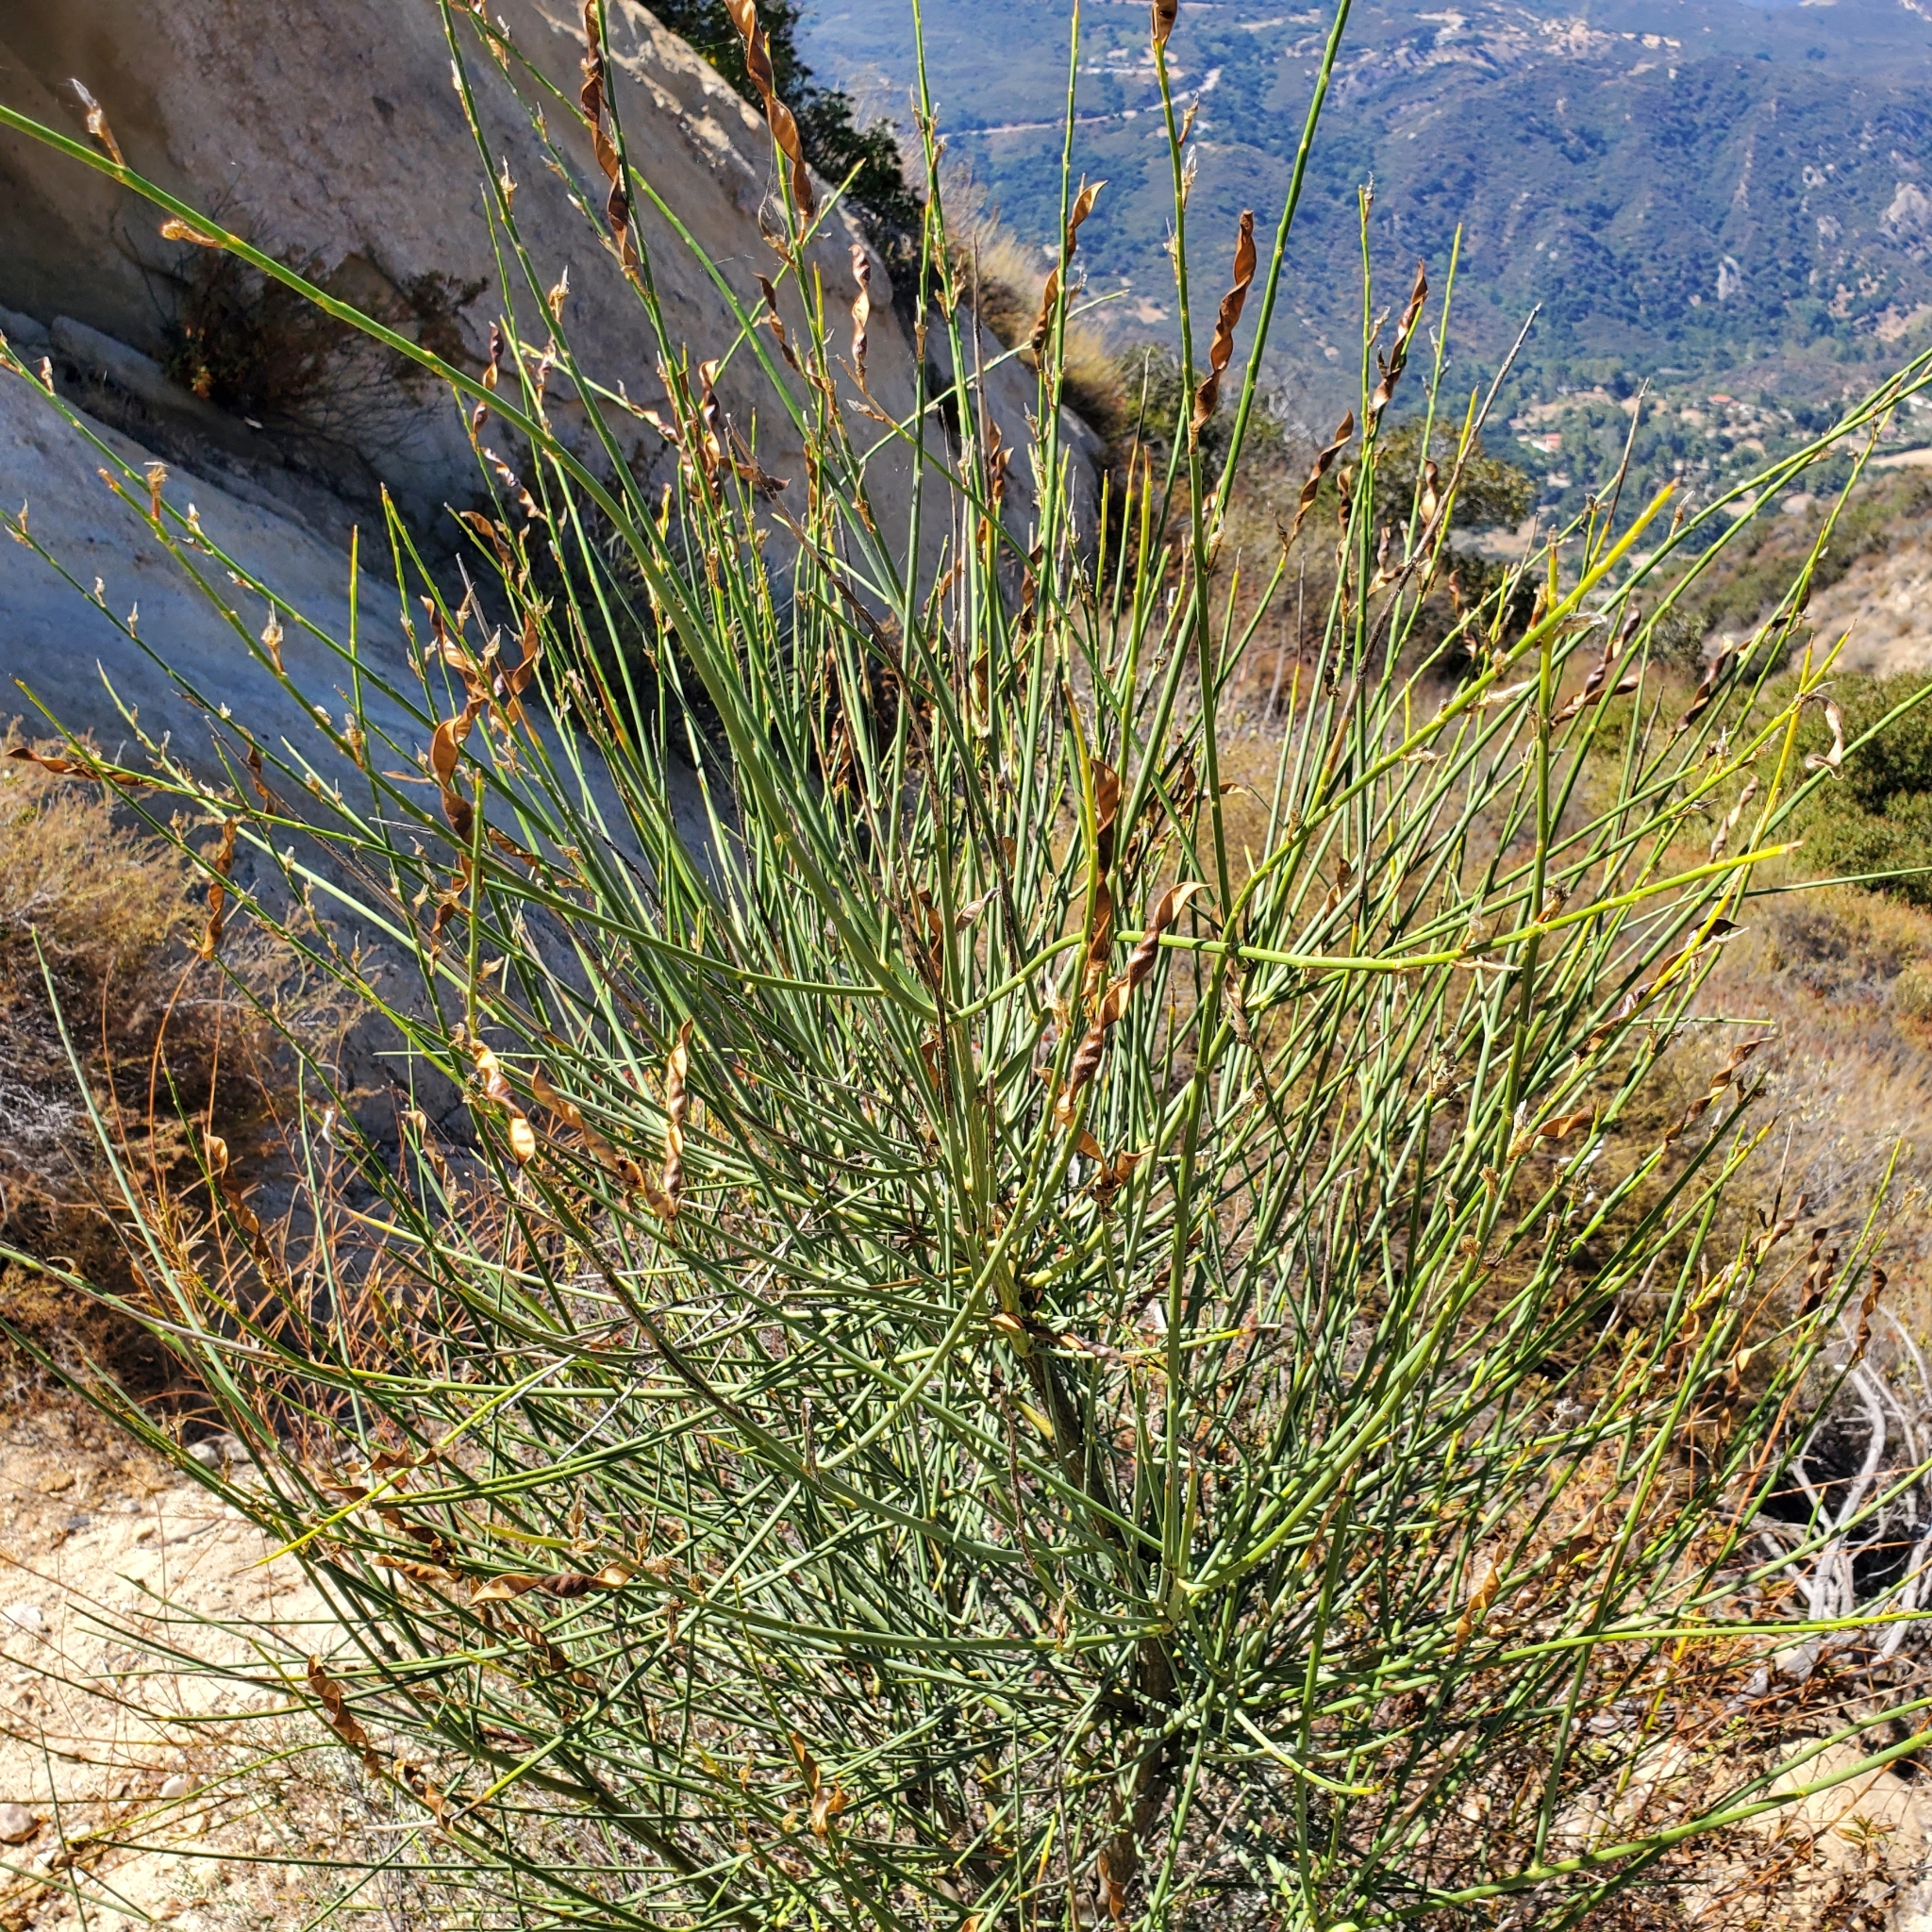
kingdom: Plantae
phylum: Tracheophyta
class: Magnoliopsida
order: Fabales
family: Fabaceae
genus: Spartium
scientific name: Spartium junceum
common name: Spanish broom
